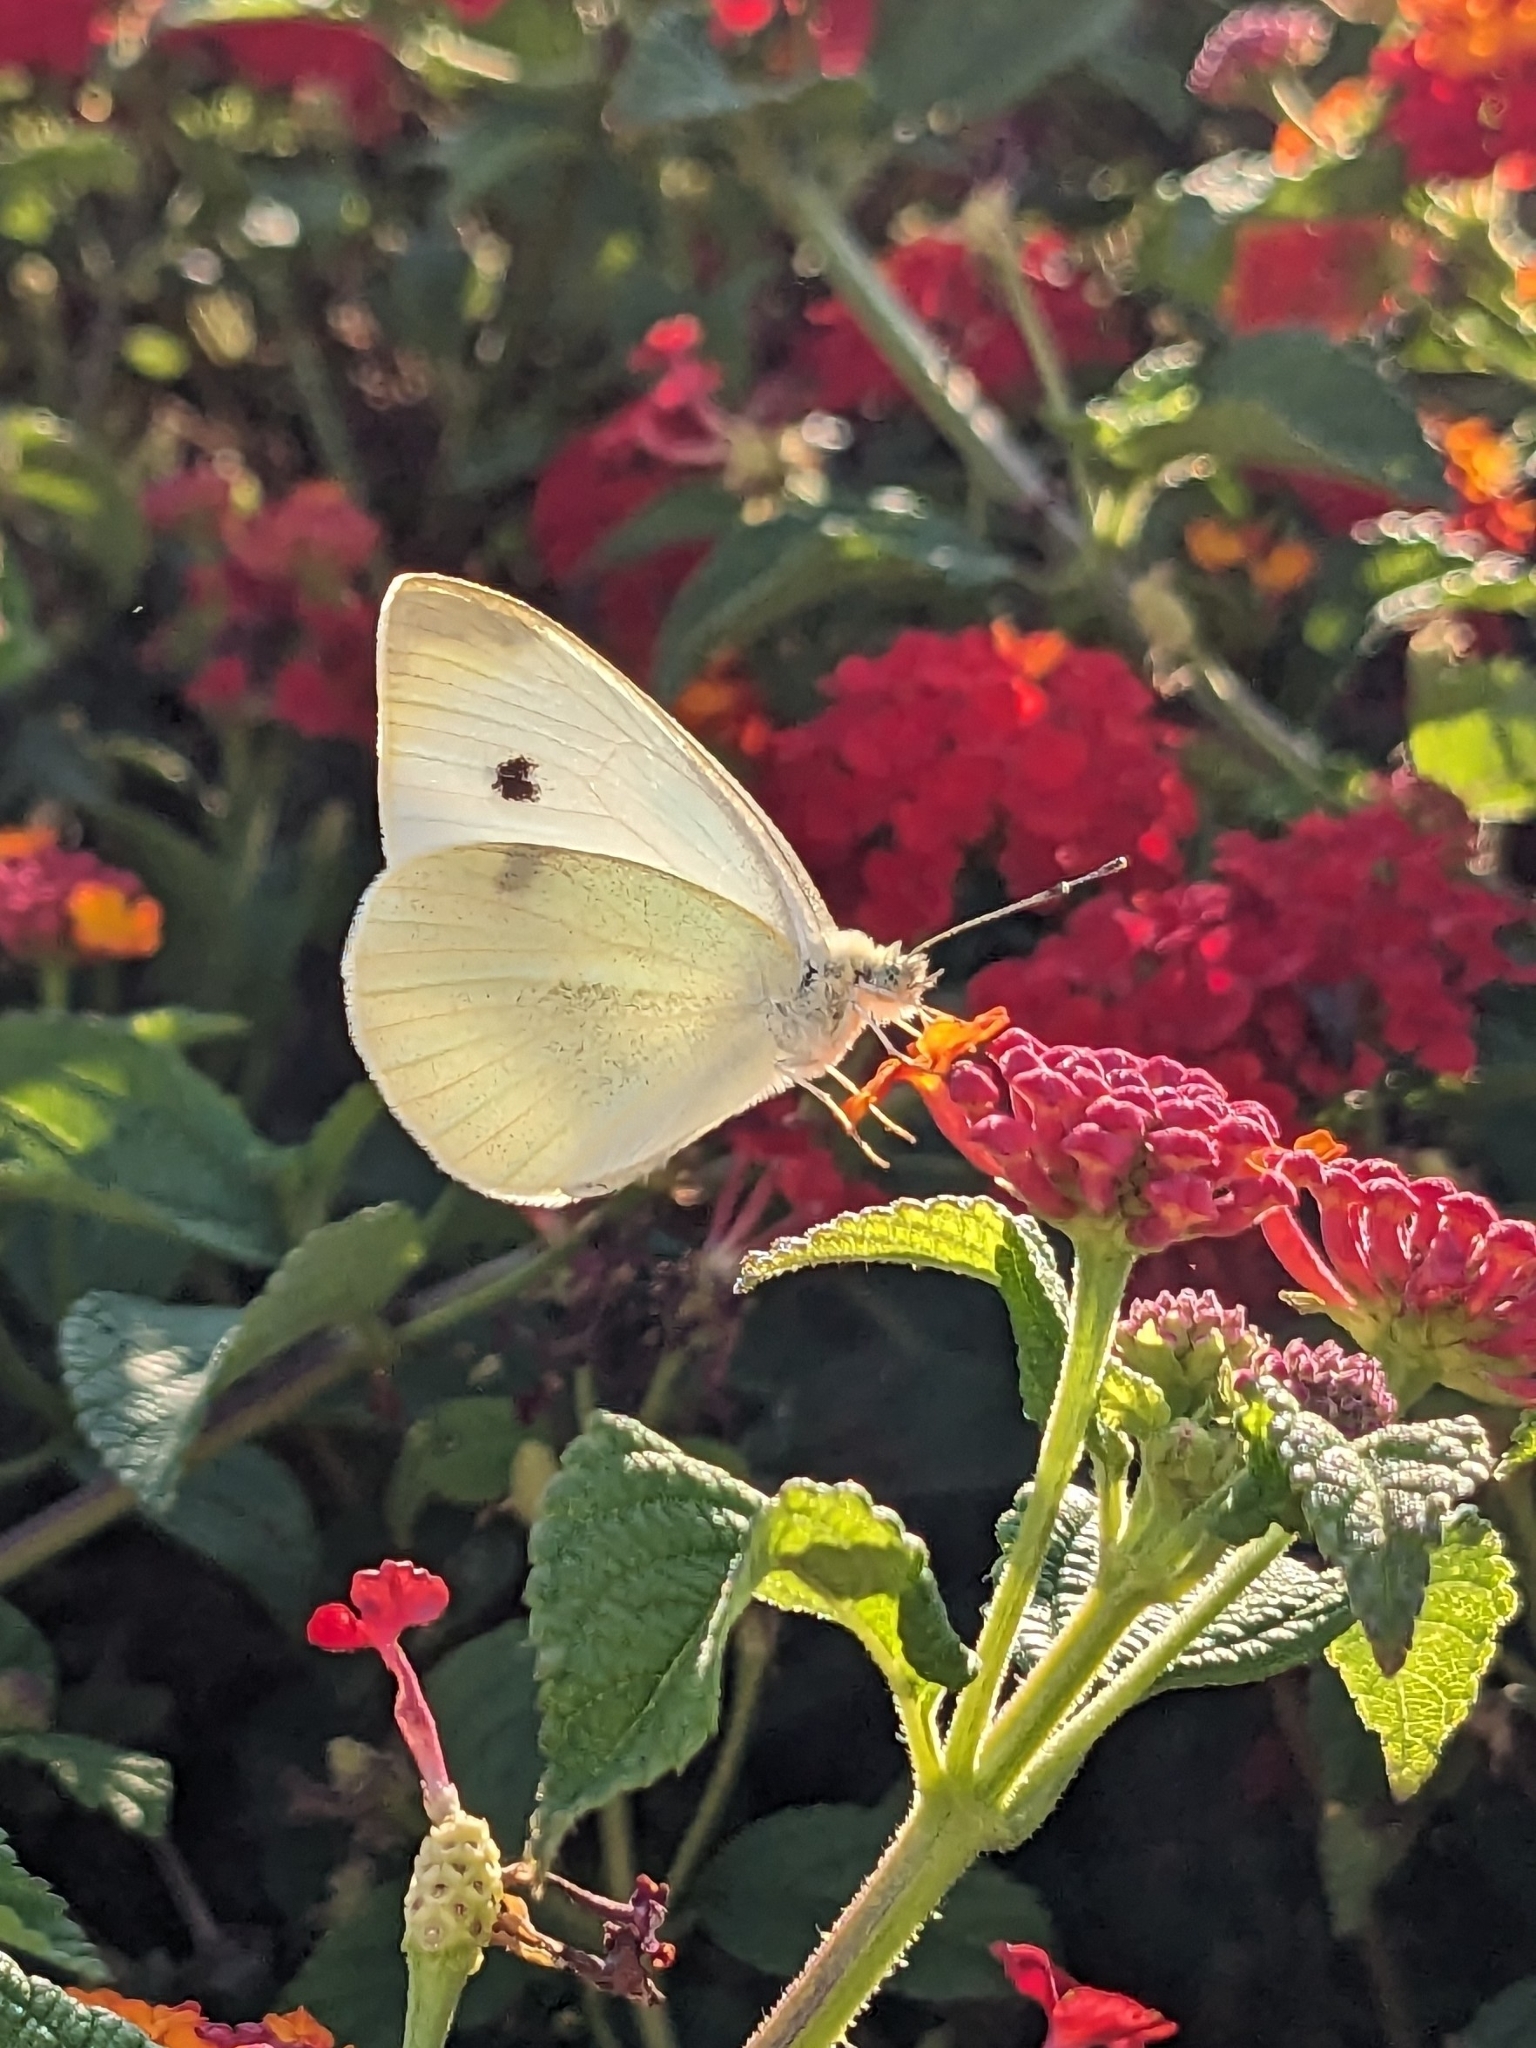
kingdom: Animalia
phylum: Arthropoda
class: Insecta
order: Lepidoptera
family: Pieridae
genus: Pieris
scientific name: Pieris rapae
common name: Small white
